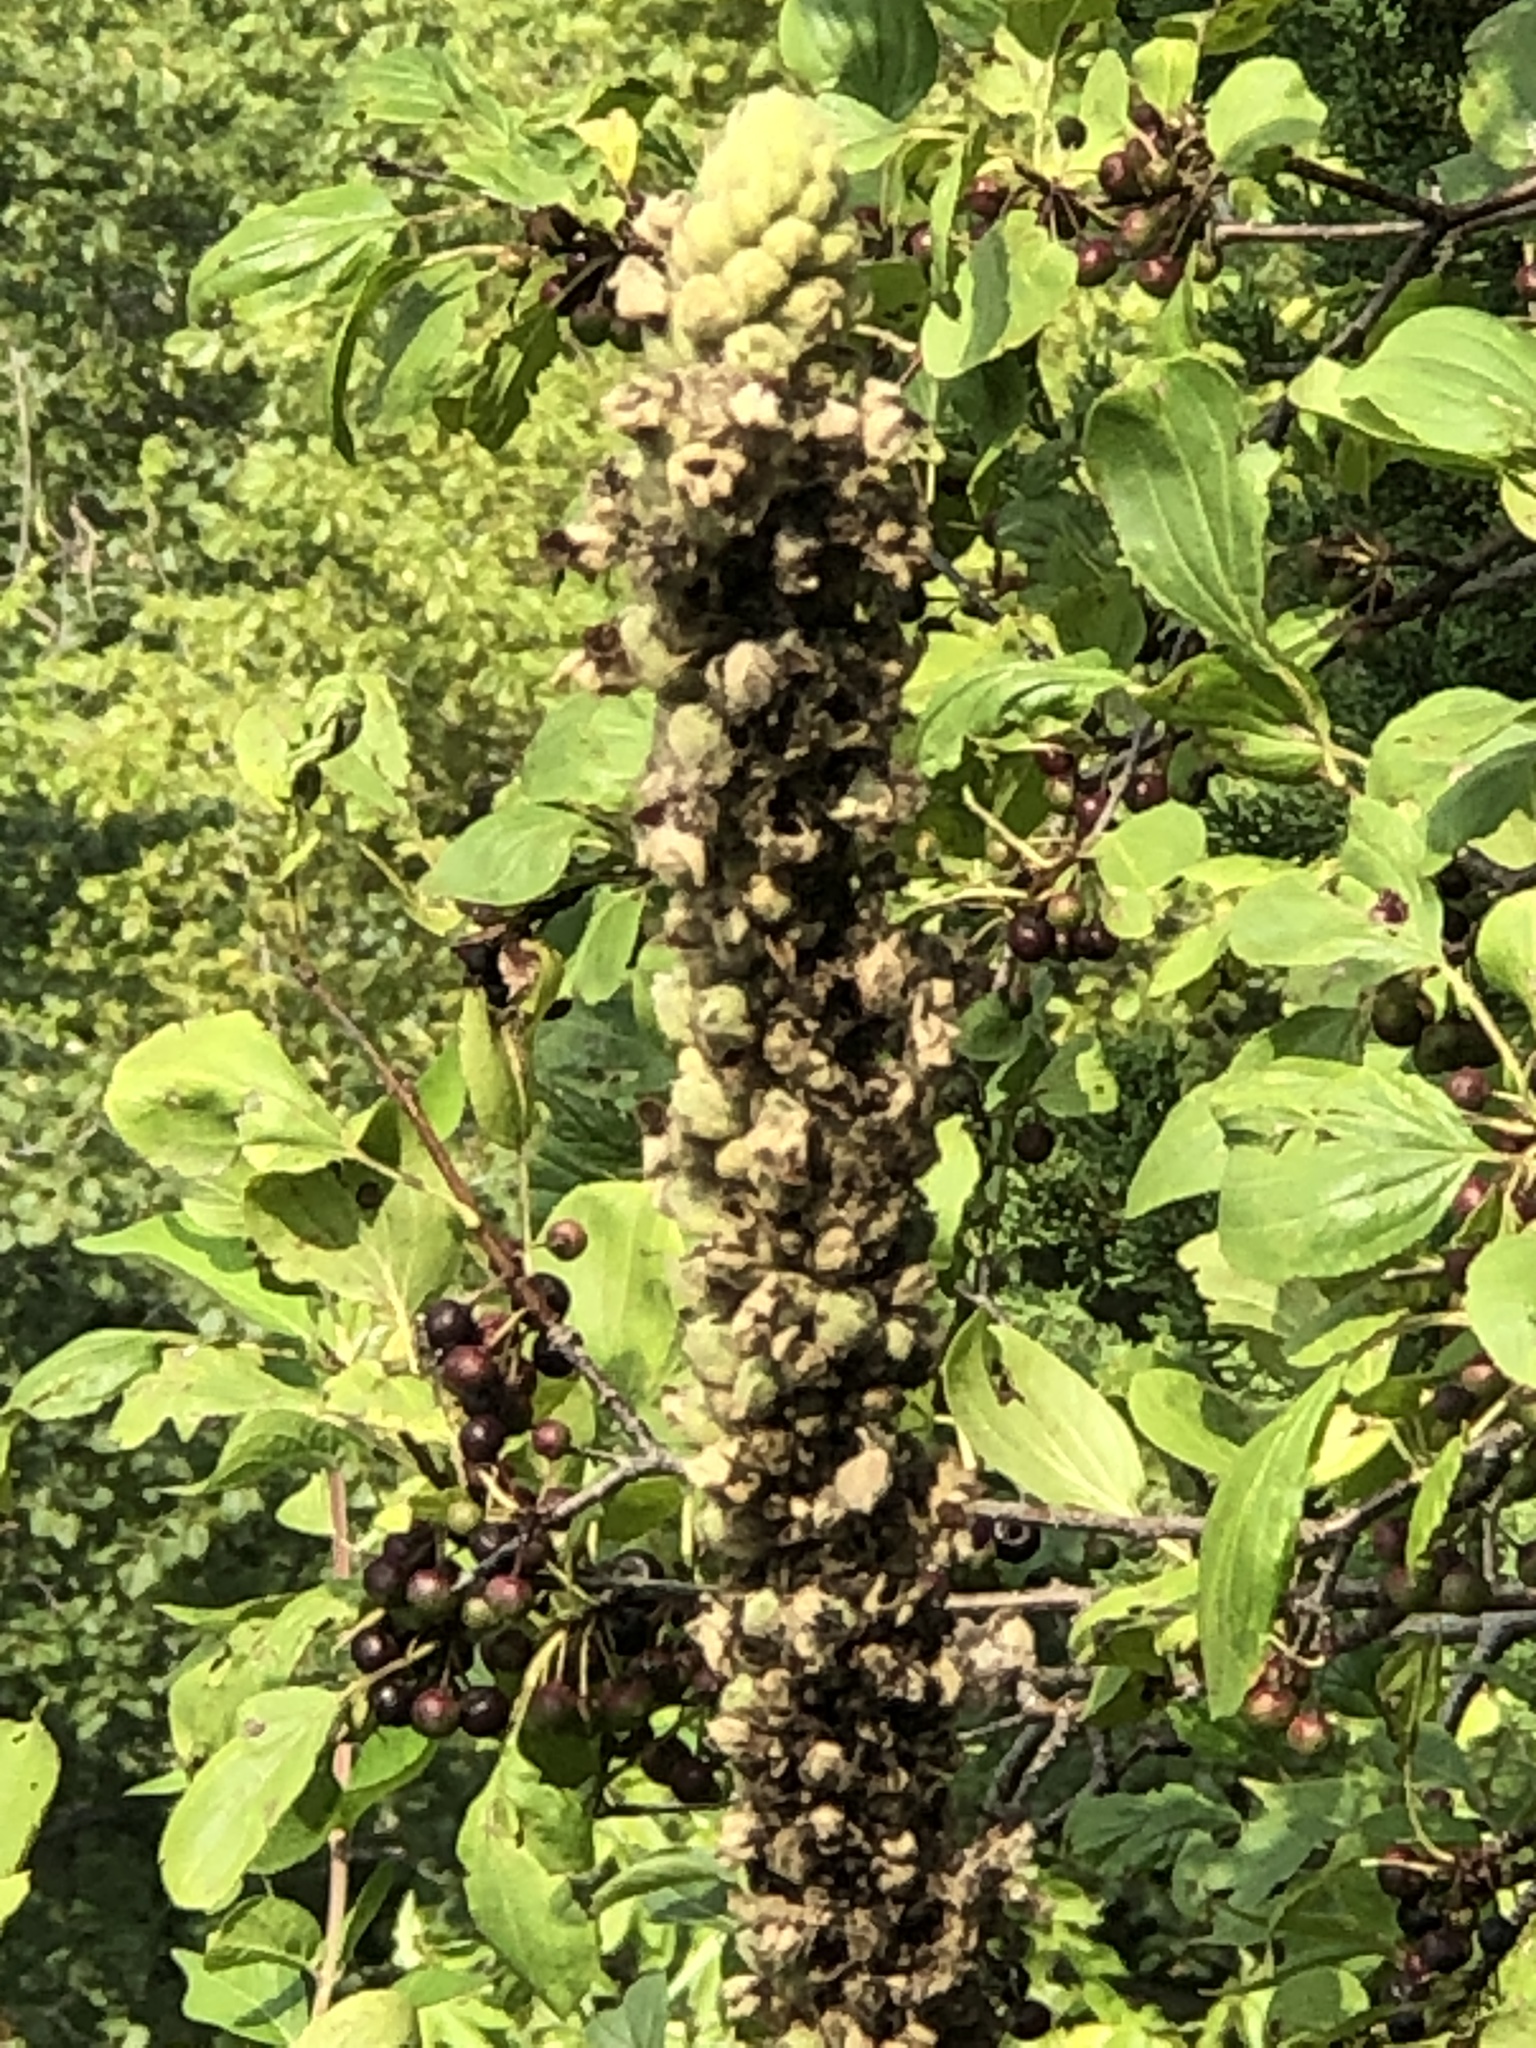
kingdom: Plantae
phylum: Tracheophyta
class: Magnoliopsida
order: Lamiales
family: Scrophulariaceae
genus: Verbascum
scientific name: Verbascum thapsus
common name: Common mullein
